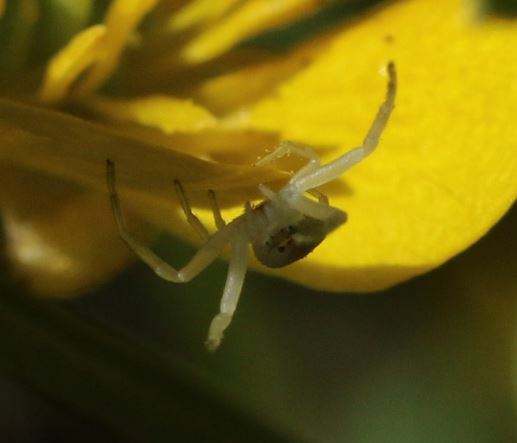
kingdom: Animalia
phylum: Arthropoda
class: Arachnida
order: Araneae
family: Thomisidae
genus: Misumena
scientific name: Misumena vatia
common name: Goldenrod crab spider
